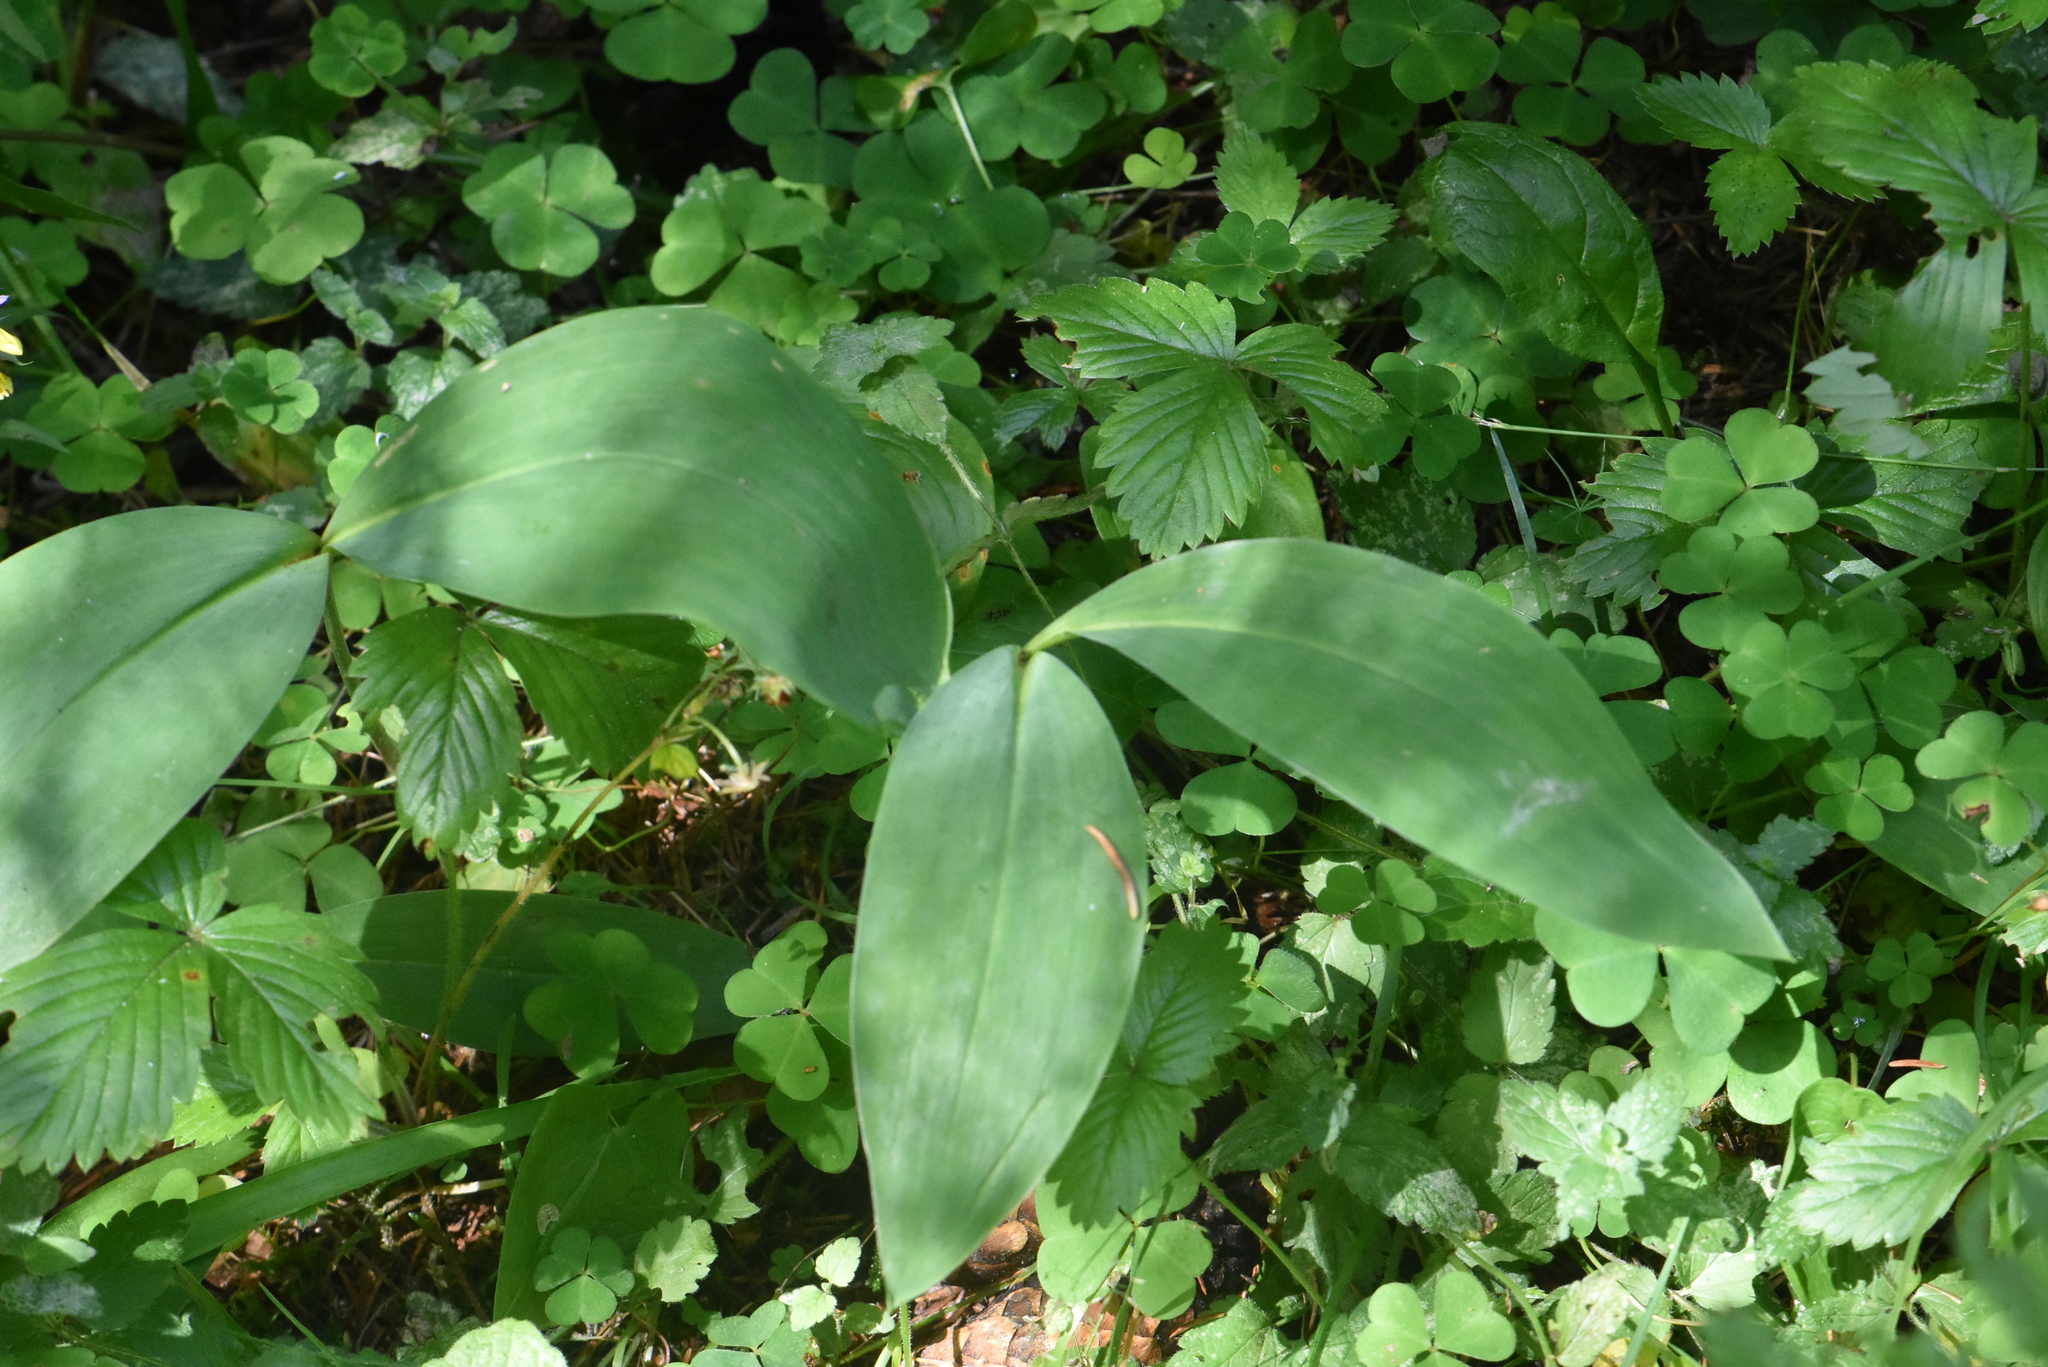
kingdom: Plantae
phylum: Tracheophyta
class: Liliopsida
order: Asparagales
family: Asparagaceae
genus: Convallaria
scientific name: Convallaria majalis
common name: Lily-of-the-valley
